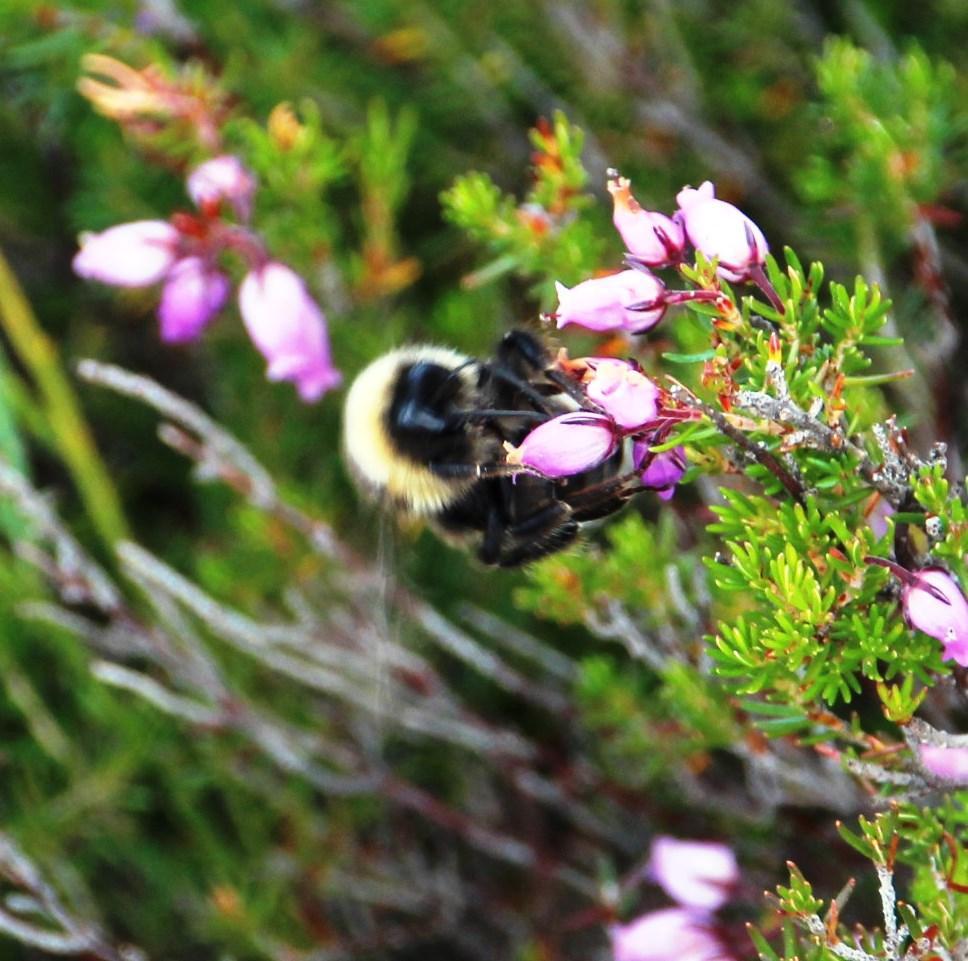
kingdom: Plantae
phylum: Tracheophyta
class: Magnoliopsida
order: Ericales
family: Ericaceae
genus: Erica
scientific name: Erica cinerea
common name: Bell heather
